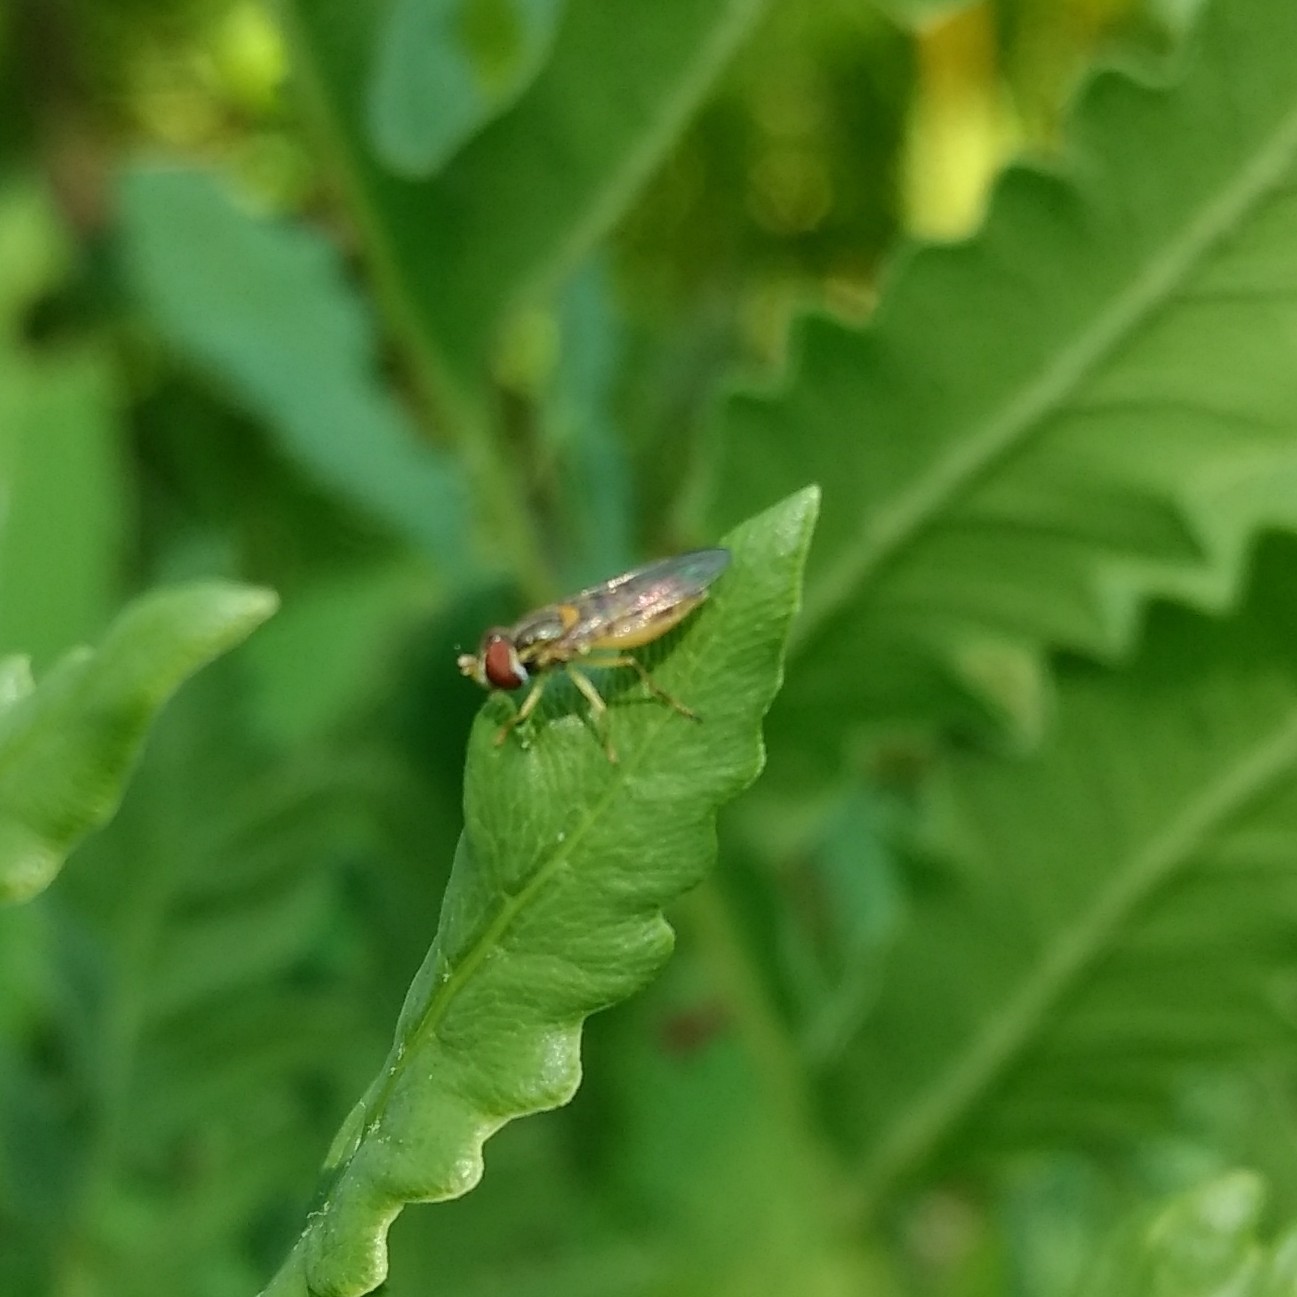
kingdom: Animalia
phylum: Arthropoda
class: Insecta
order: Diptera
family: Syrphidae
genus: Toxomerus
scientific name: Toxomerus marginatus
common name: Syrphid fly
